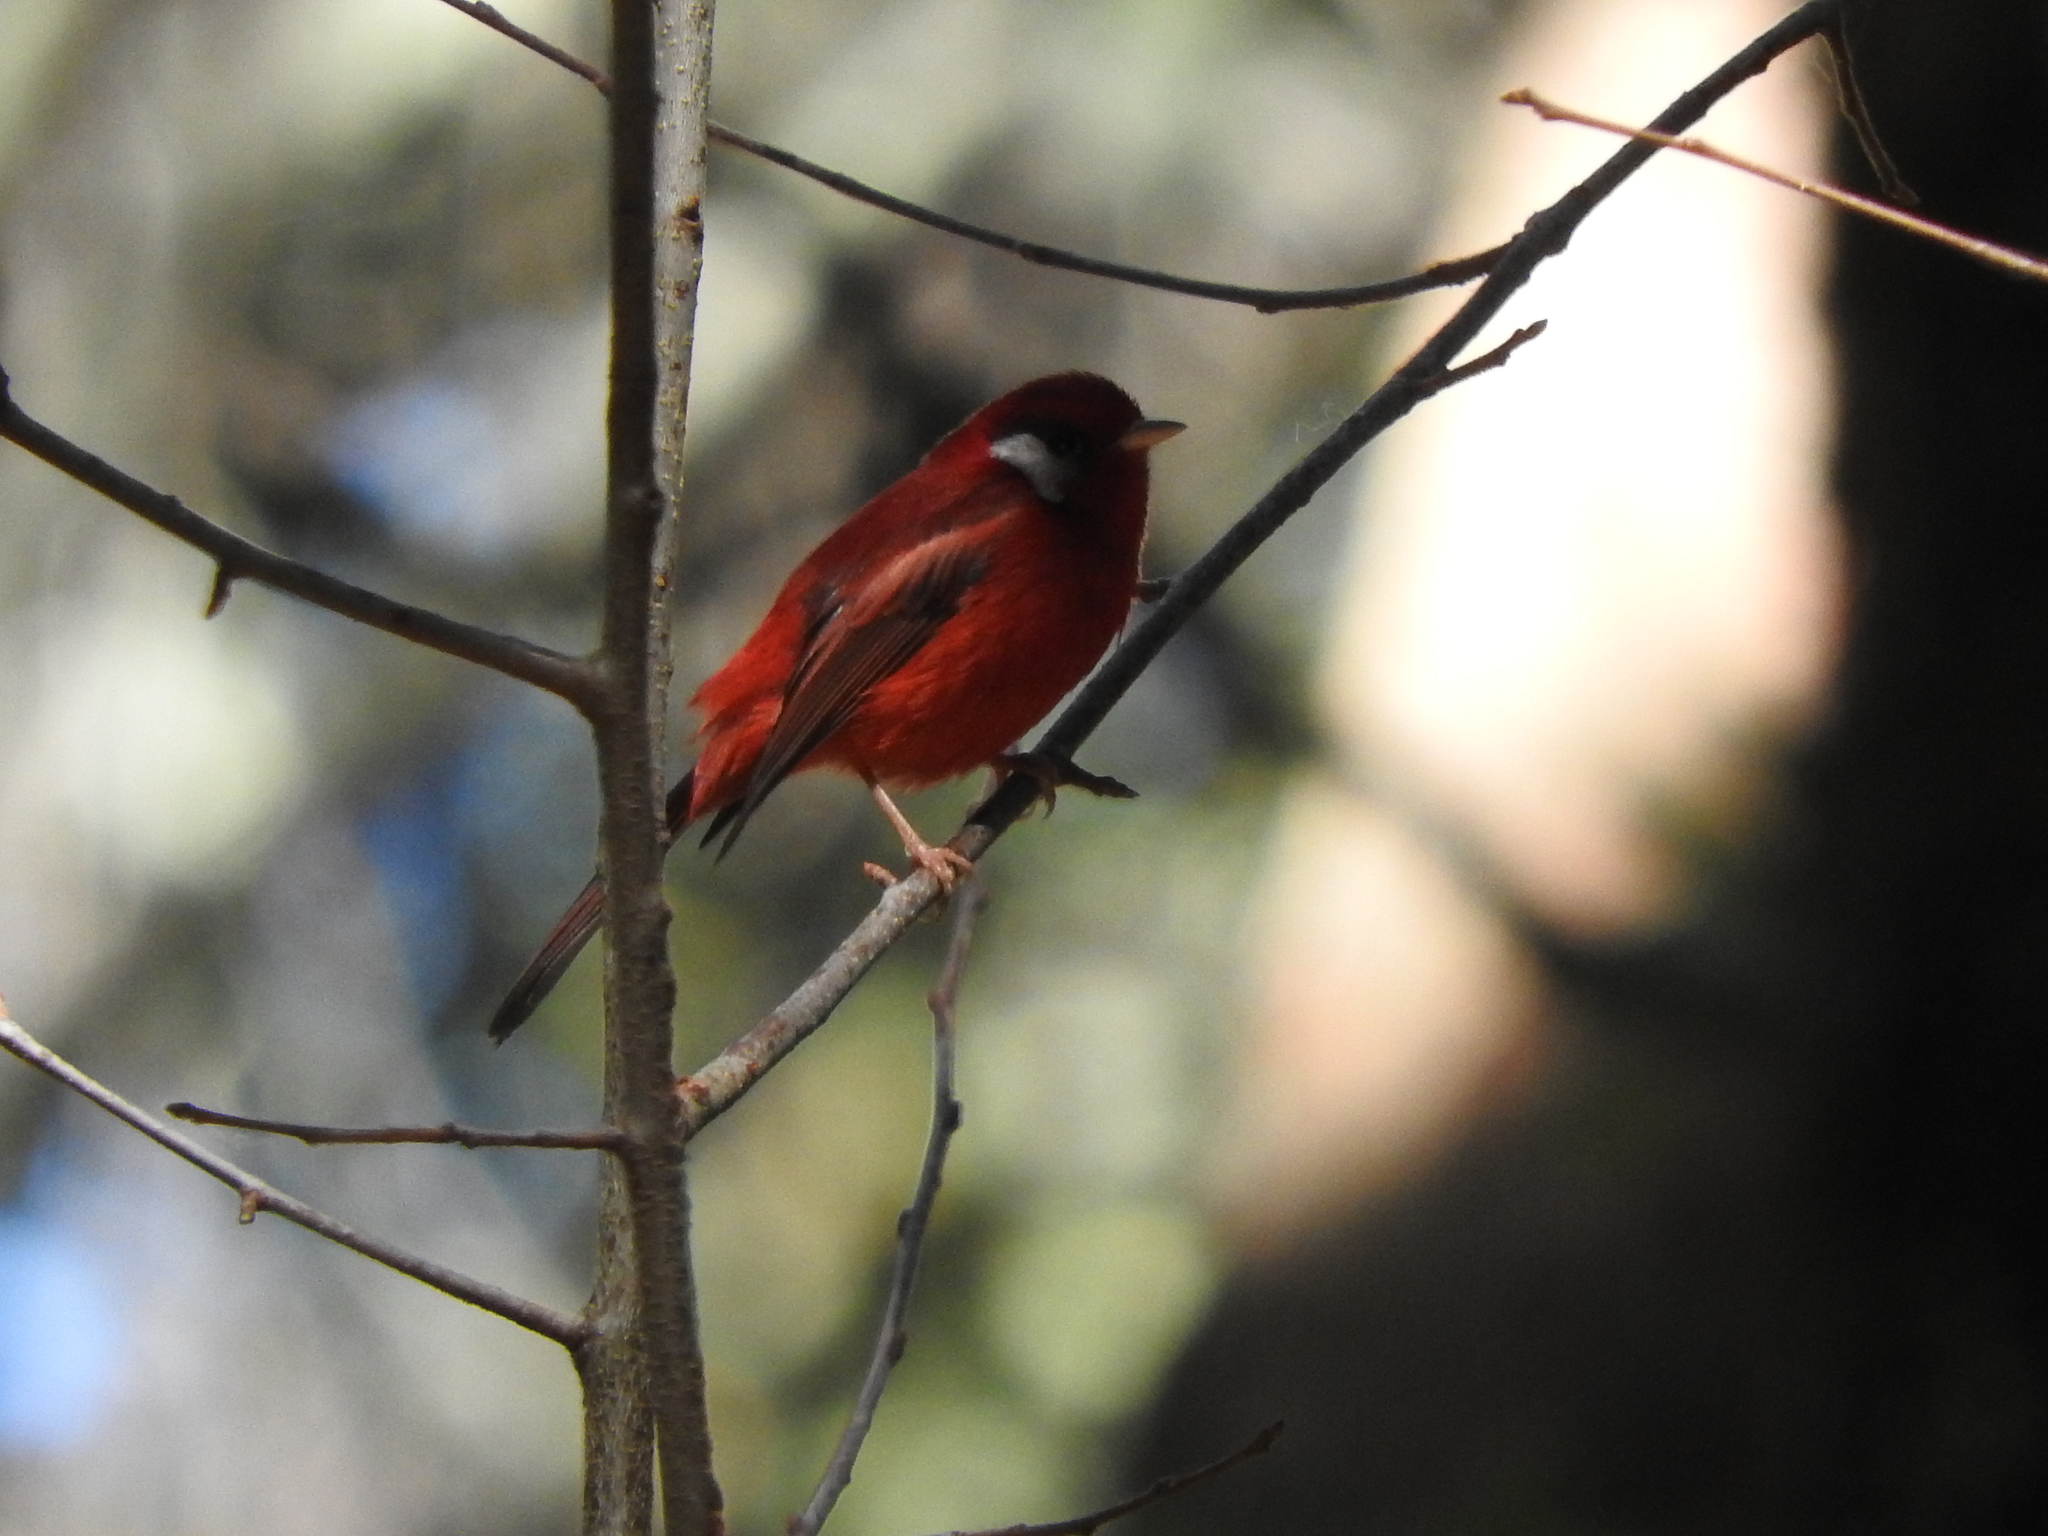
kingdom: Animalia
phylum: Chordata
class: Aves
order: Passeriformes
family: Parulidae
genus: Cardellina
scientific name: Cardellina rubra
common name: Red warbler
